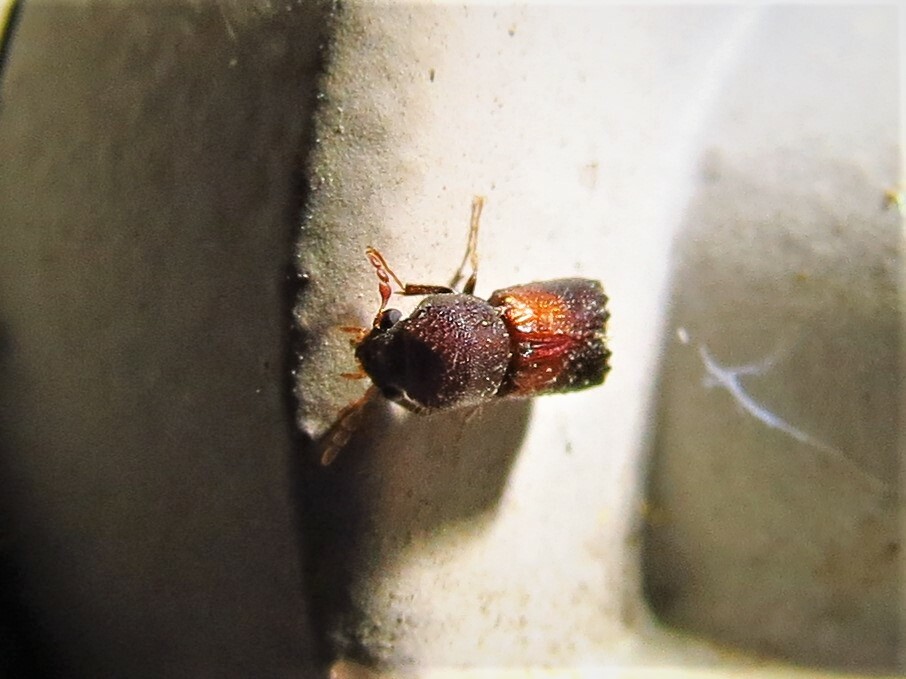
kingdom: Animalia
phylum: Arthropoda
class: Insecta
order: Coleoptera
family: Bostrichidae
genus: Xylobiops
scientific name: Xylobiops basilaris
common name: Red-shouldered bostrichid
